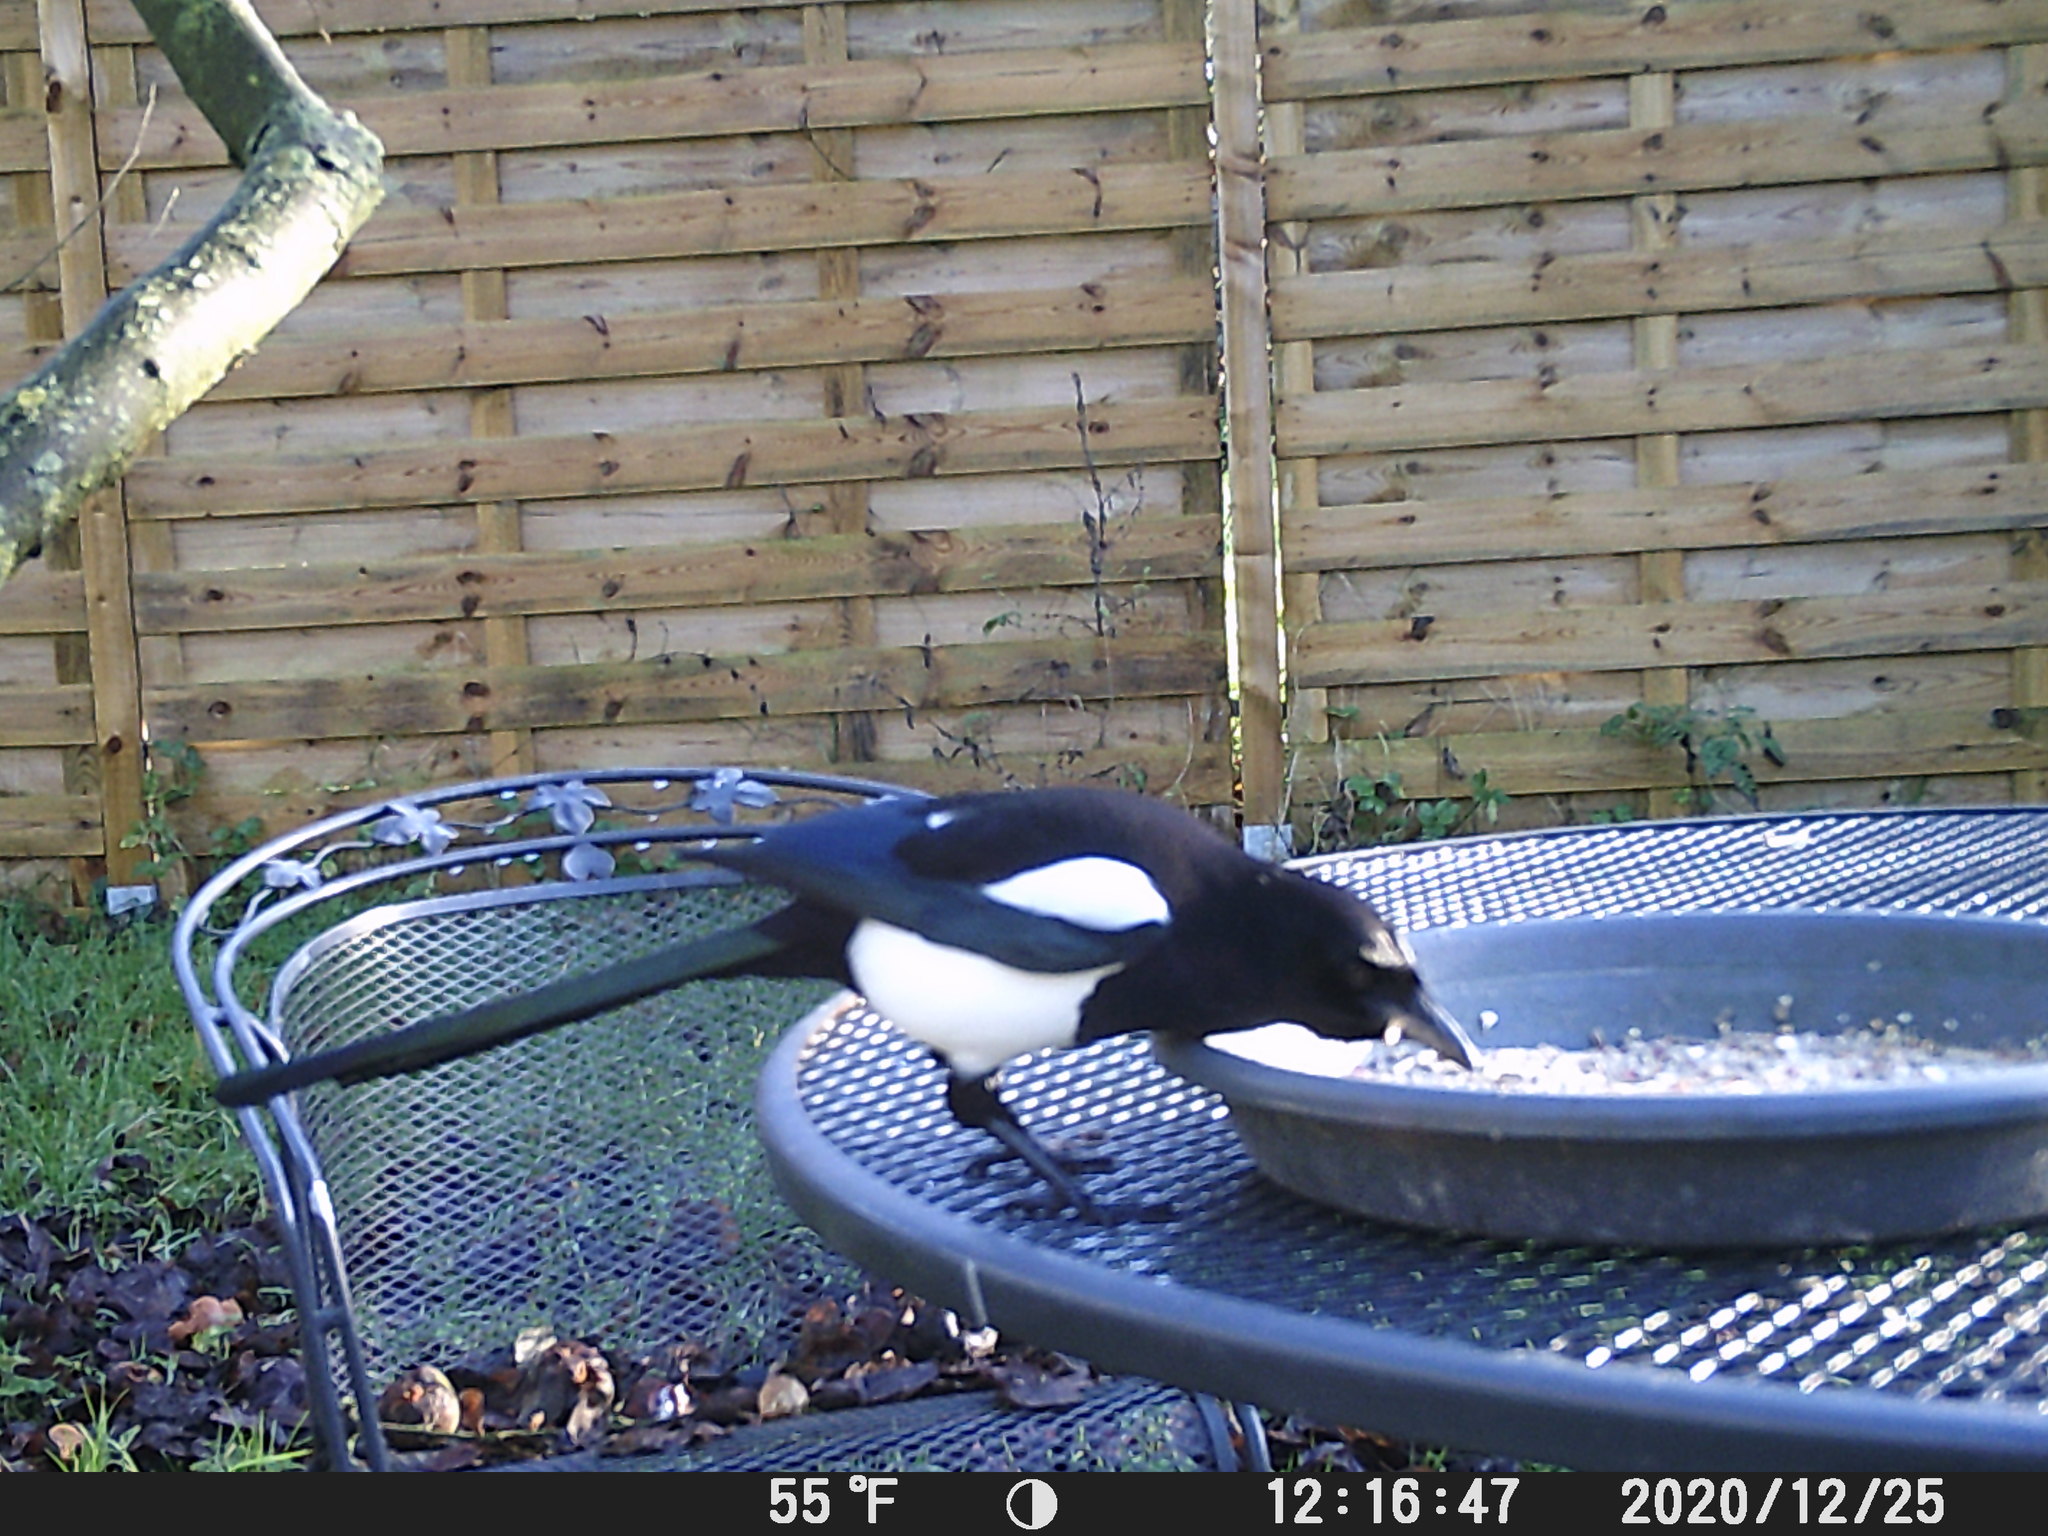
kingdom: Animalia
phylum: Chordata
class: Aves
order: Passeriformes
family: Corvidae
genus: Pica
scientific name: Pica pica
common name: Eurasian magpie
